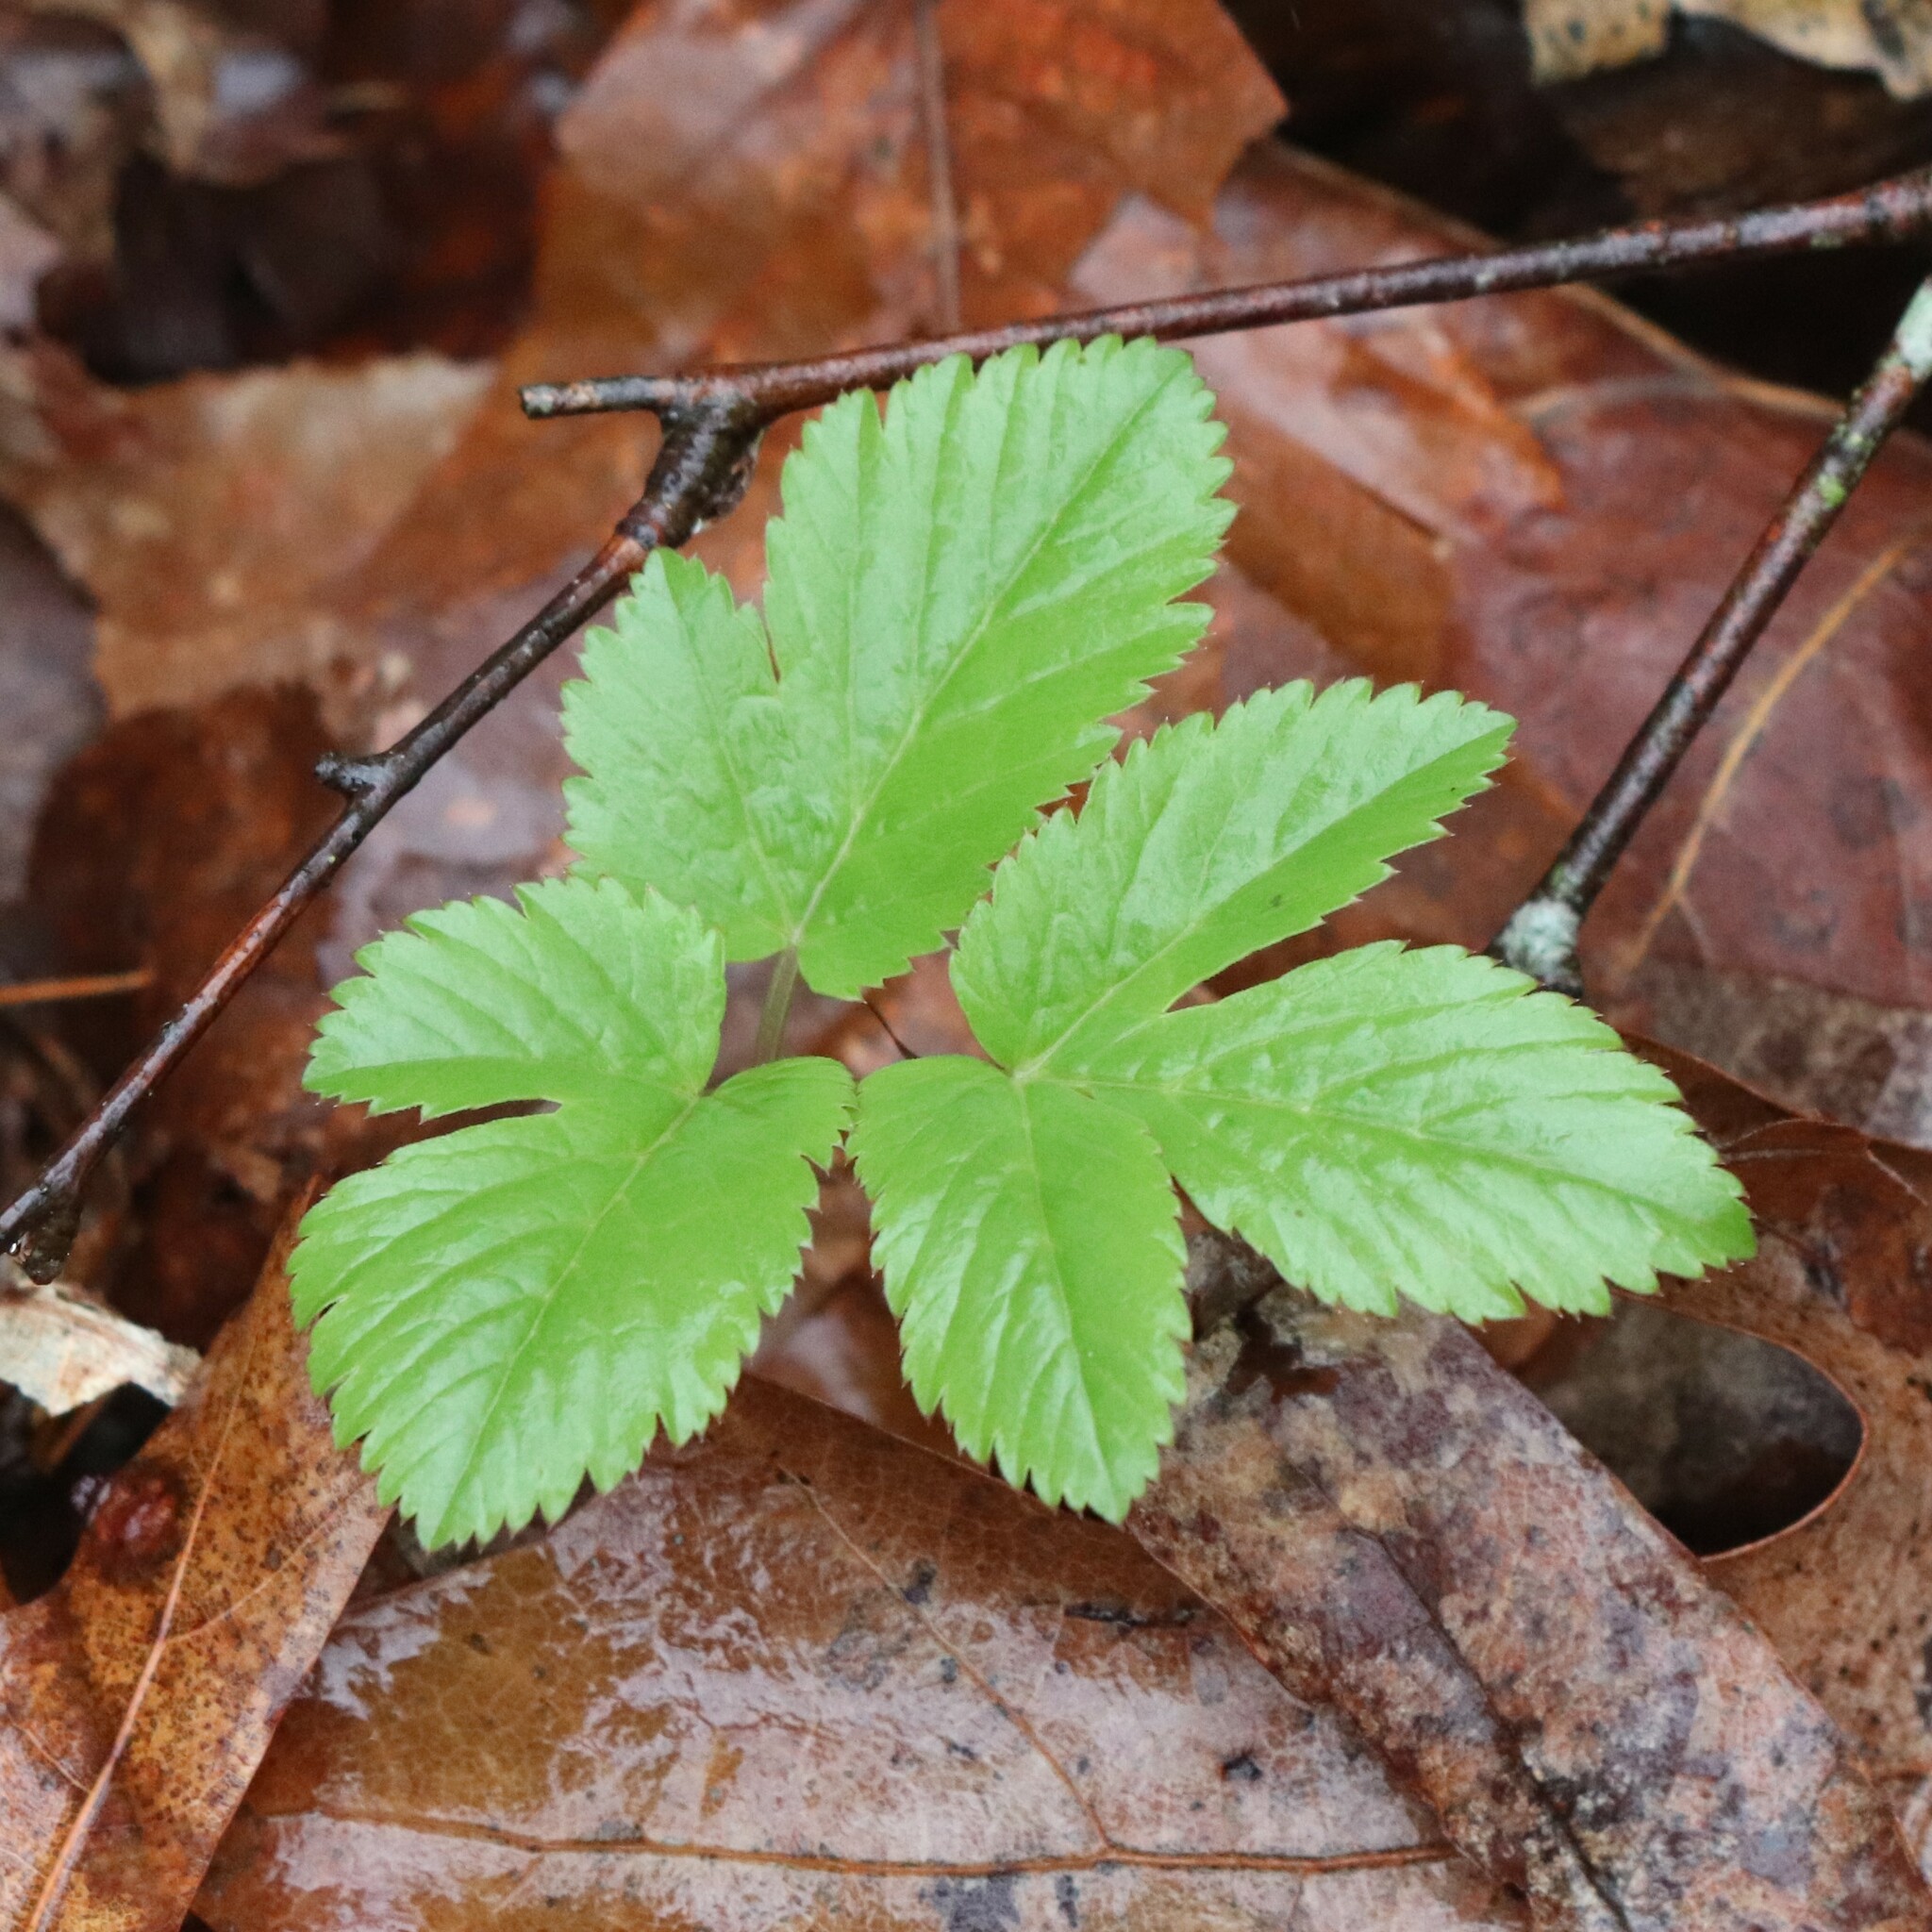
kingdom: Plantae
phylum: Tracheophyta
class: Magnoliopsida
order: Apiales
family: Apiaceae
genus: Aegopodium
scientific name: Aegopodium podagraria
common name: Ground-elder
